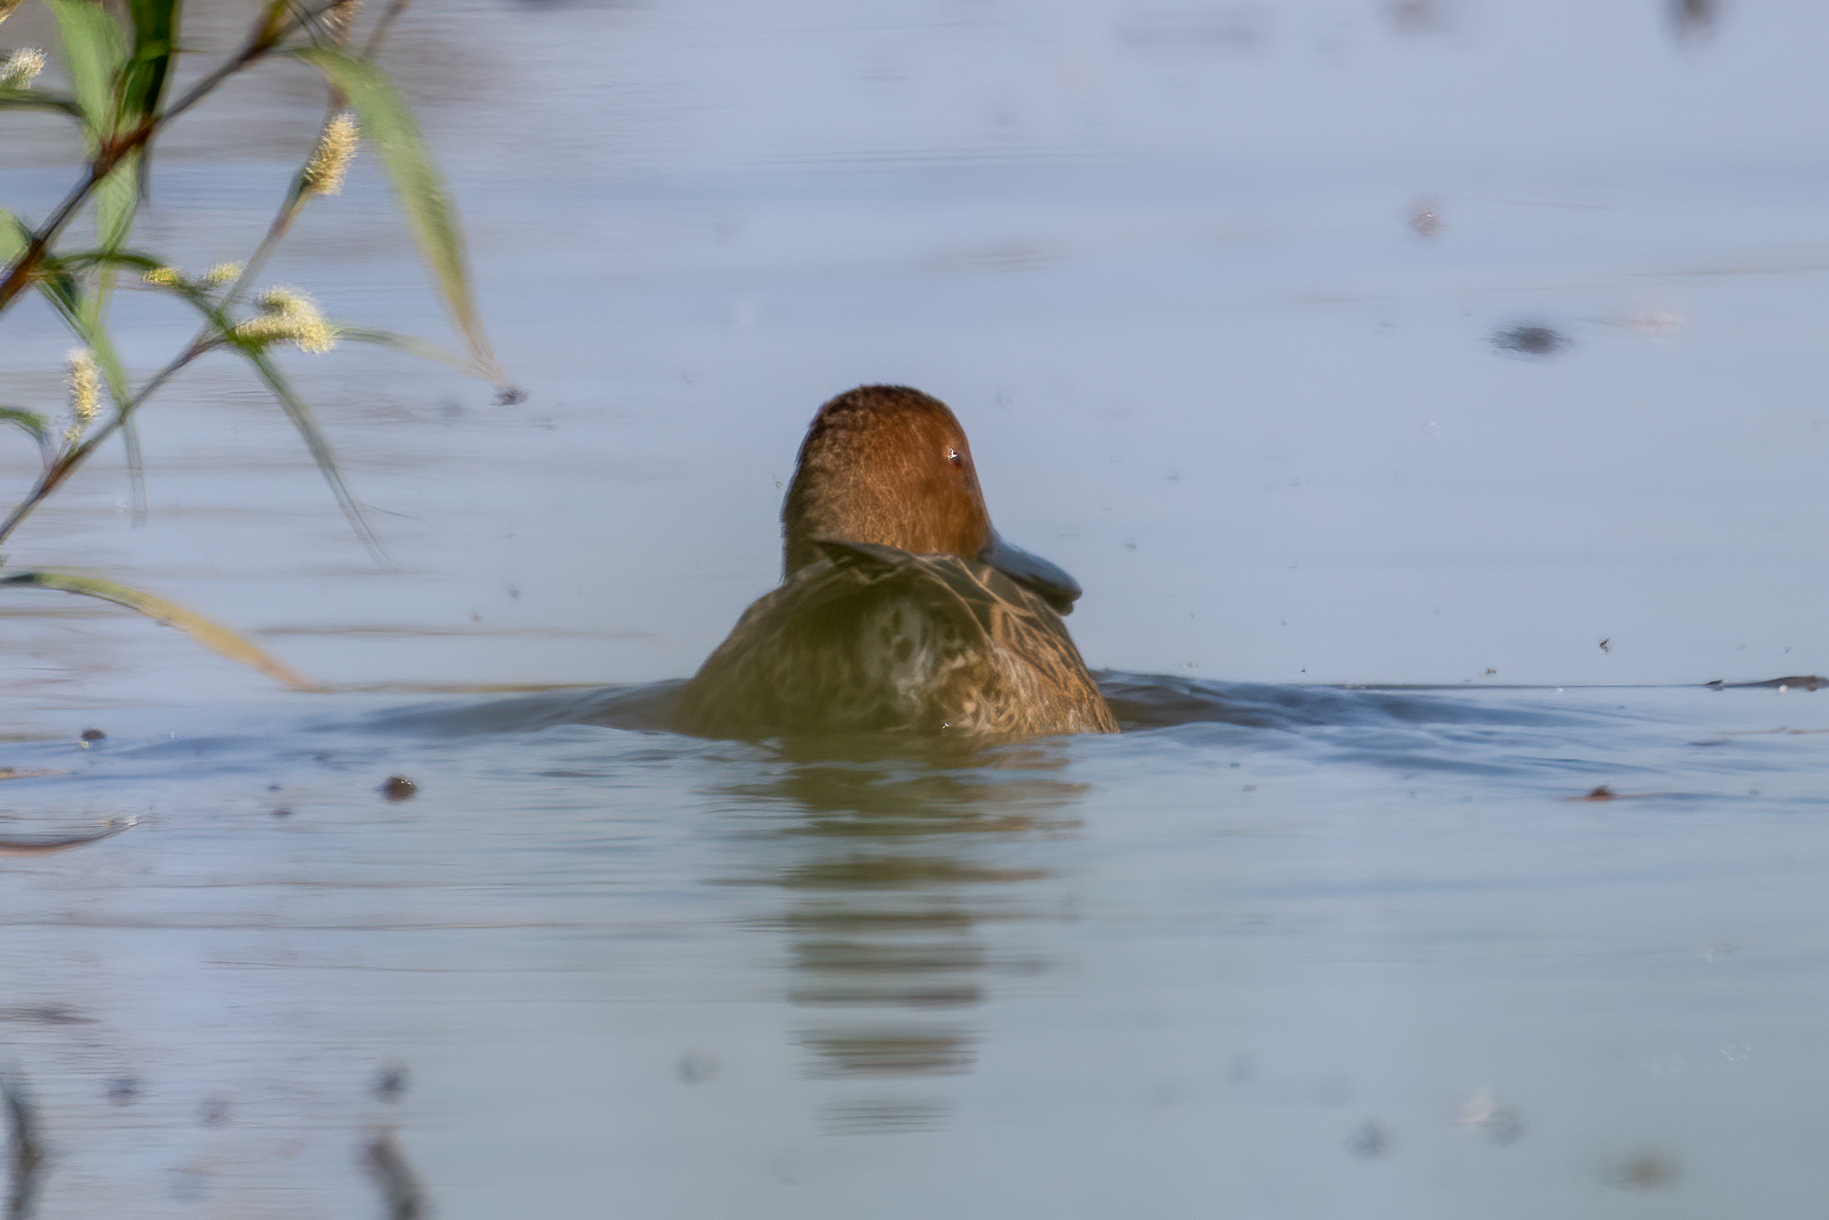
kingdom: Animalia
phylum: Chordata
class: Aves
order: Anseriformes
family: Anatidae
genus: Spatula
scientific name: Spatula cyanoptera
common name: Cinnamon teal
